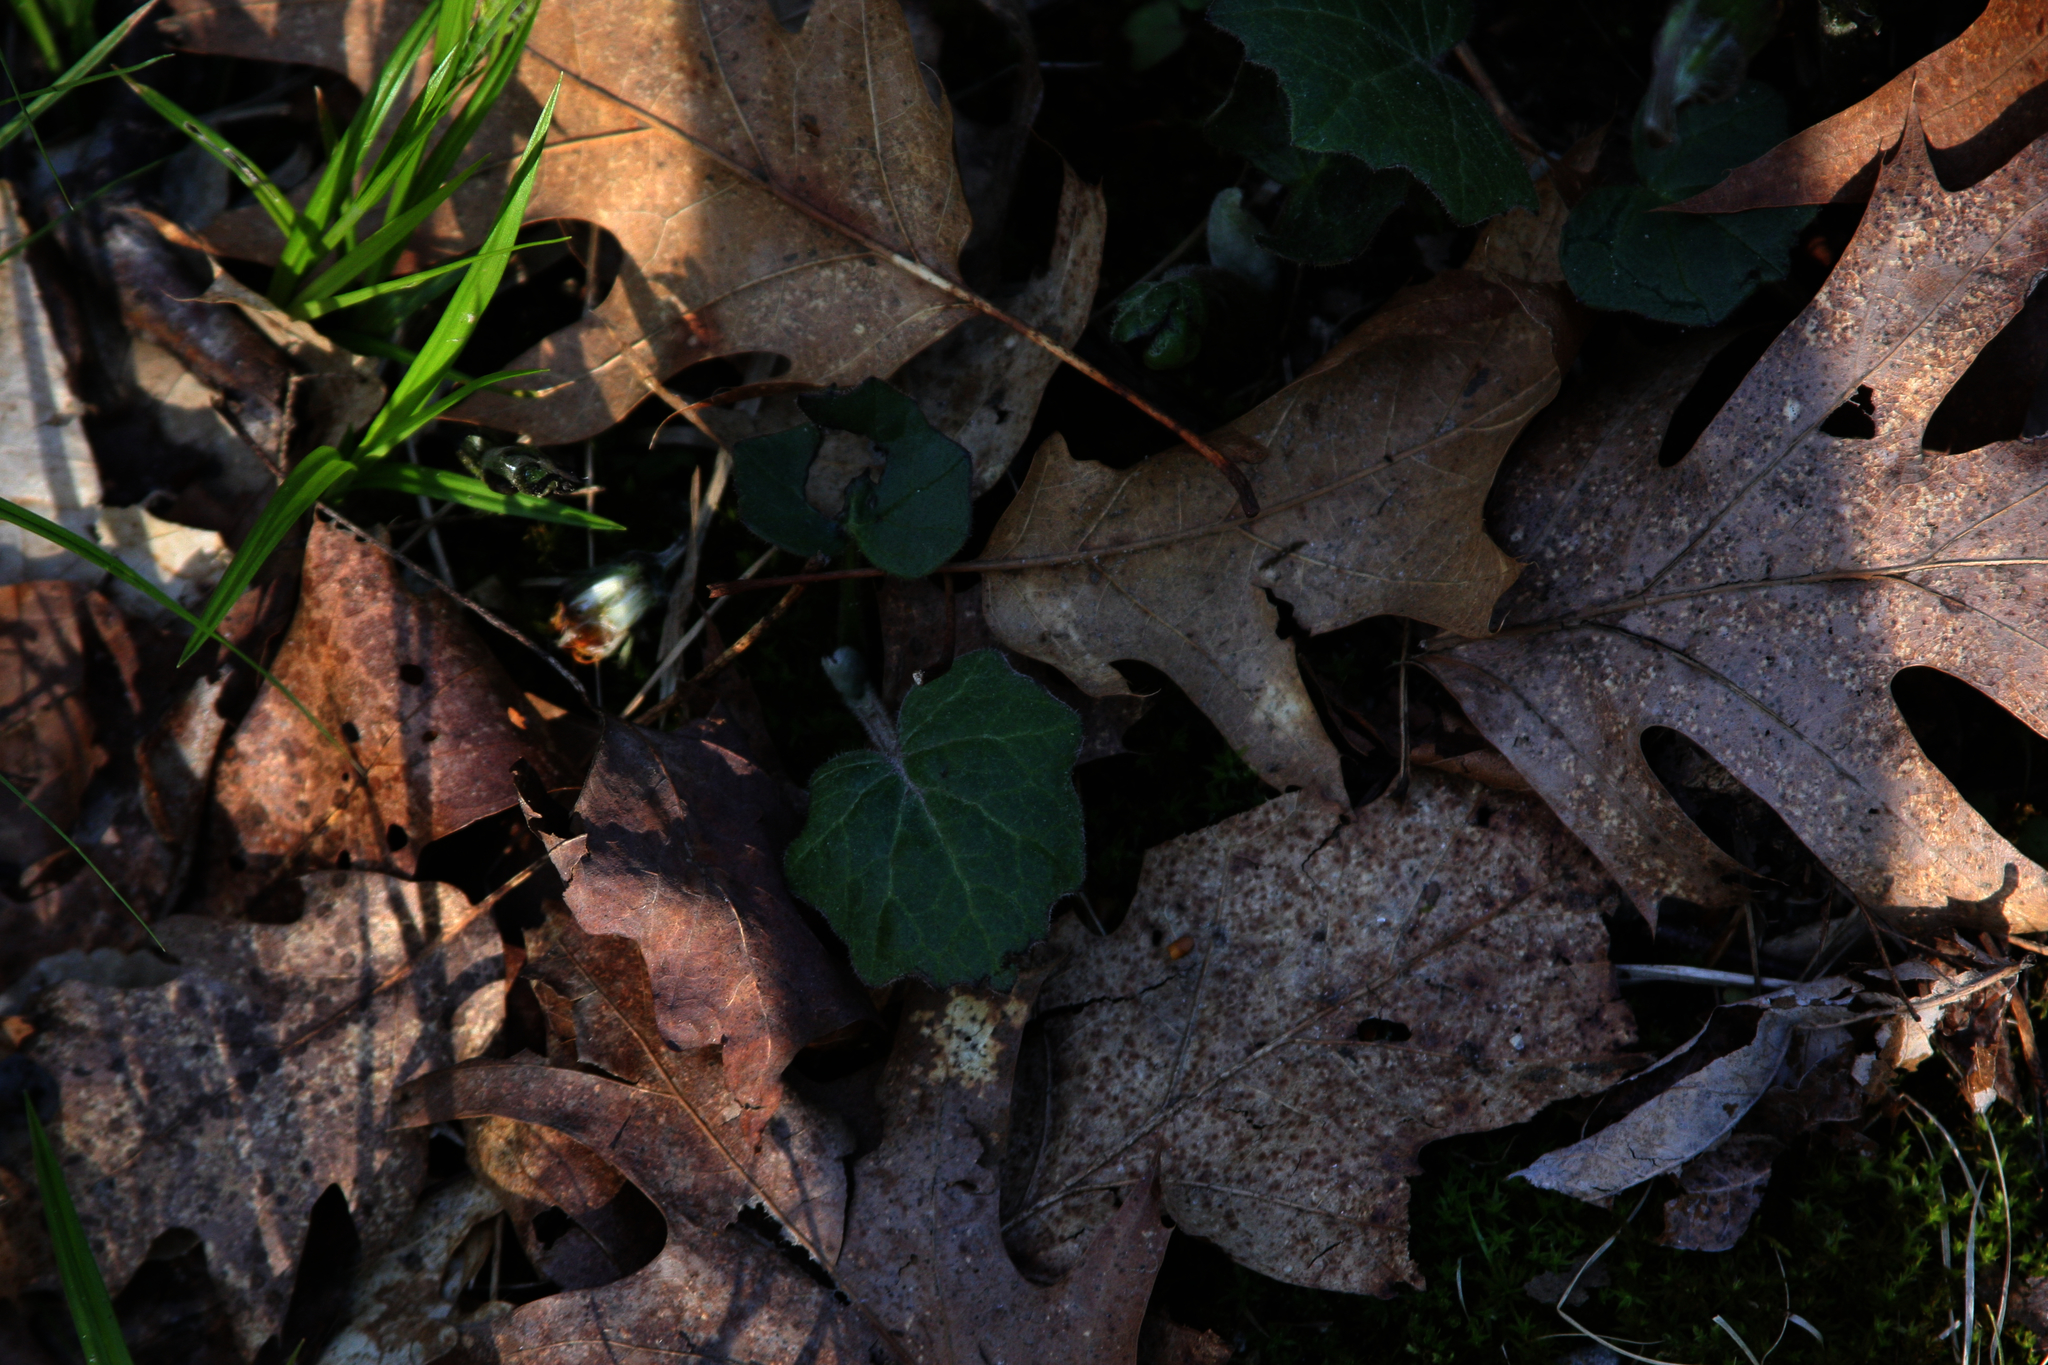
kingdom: Plantae
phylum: Tracheophyta
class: Magnoliopsida
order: Asterales
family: Asteraceae
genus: Tussilago
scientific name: Tussilago farfara
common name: Coltsfoot
